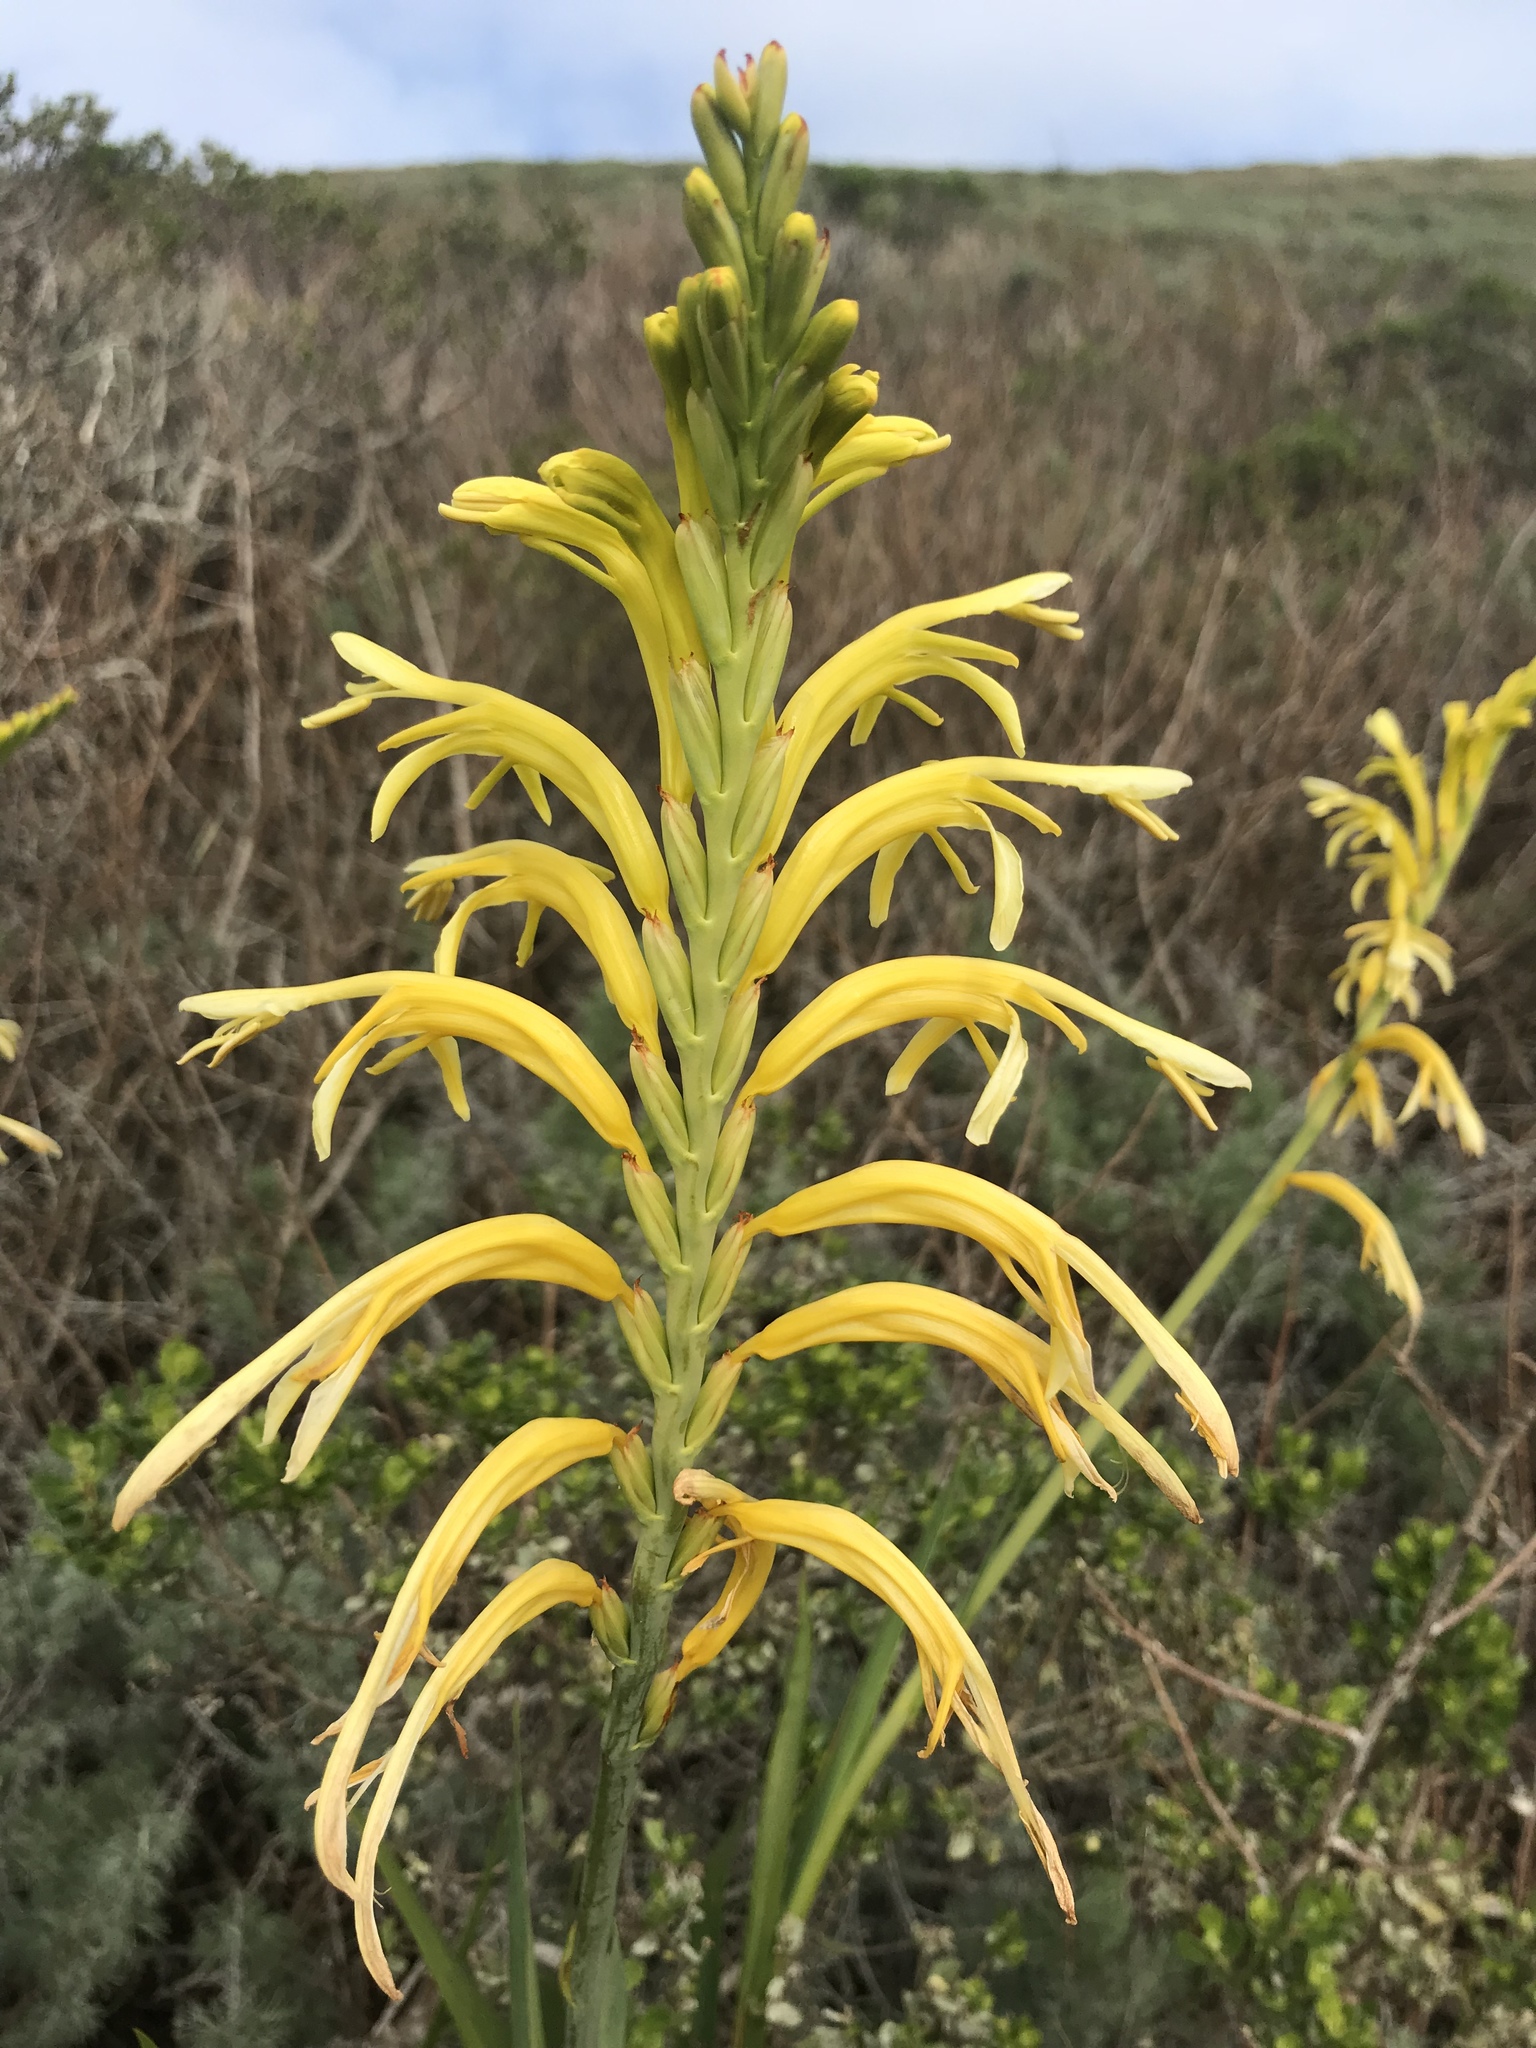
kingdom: Plantae
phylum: Tracheophyta
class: Liliopsida
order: Asparagales
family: Iridaceae
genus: Chasmanthe
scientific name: Chasmanthe floribunda
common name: African cornflag
